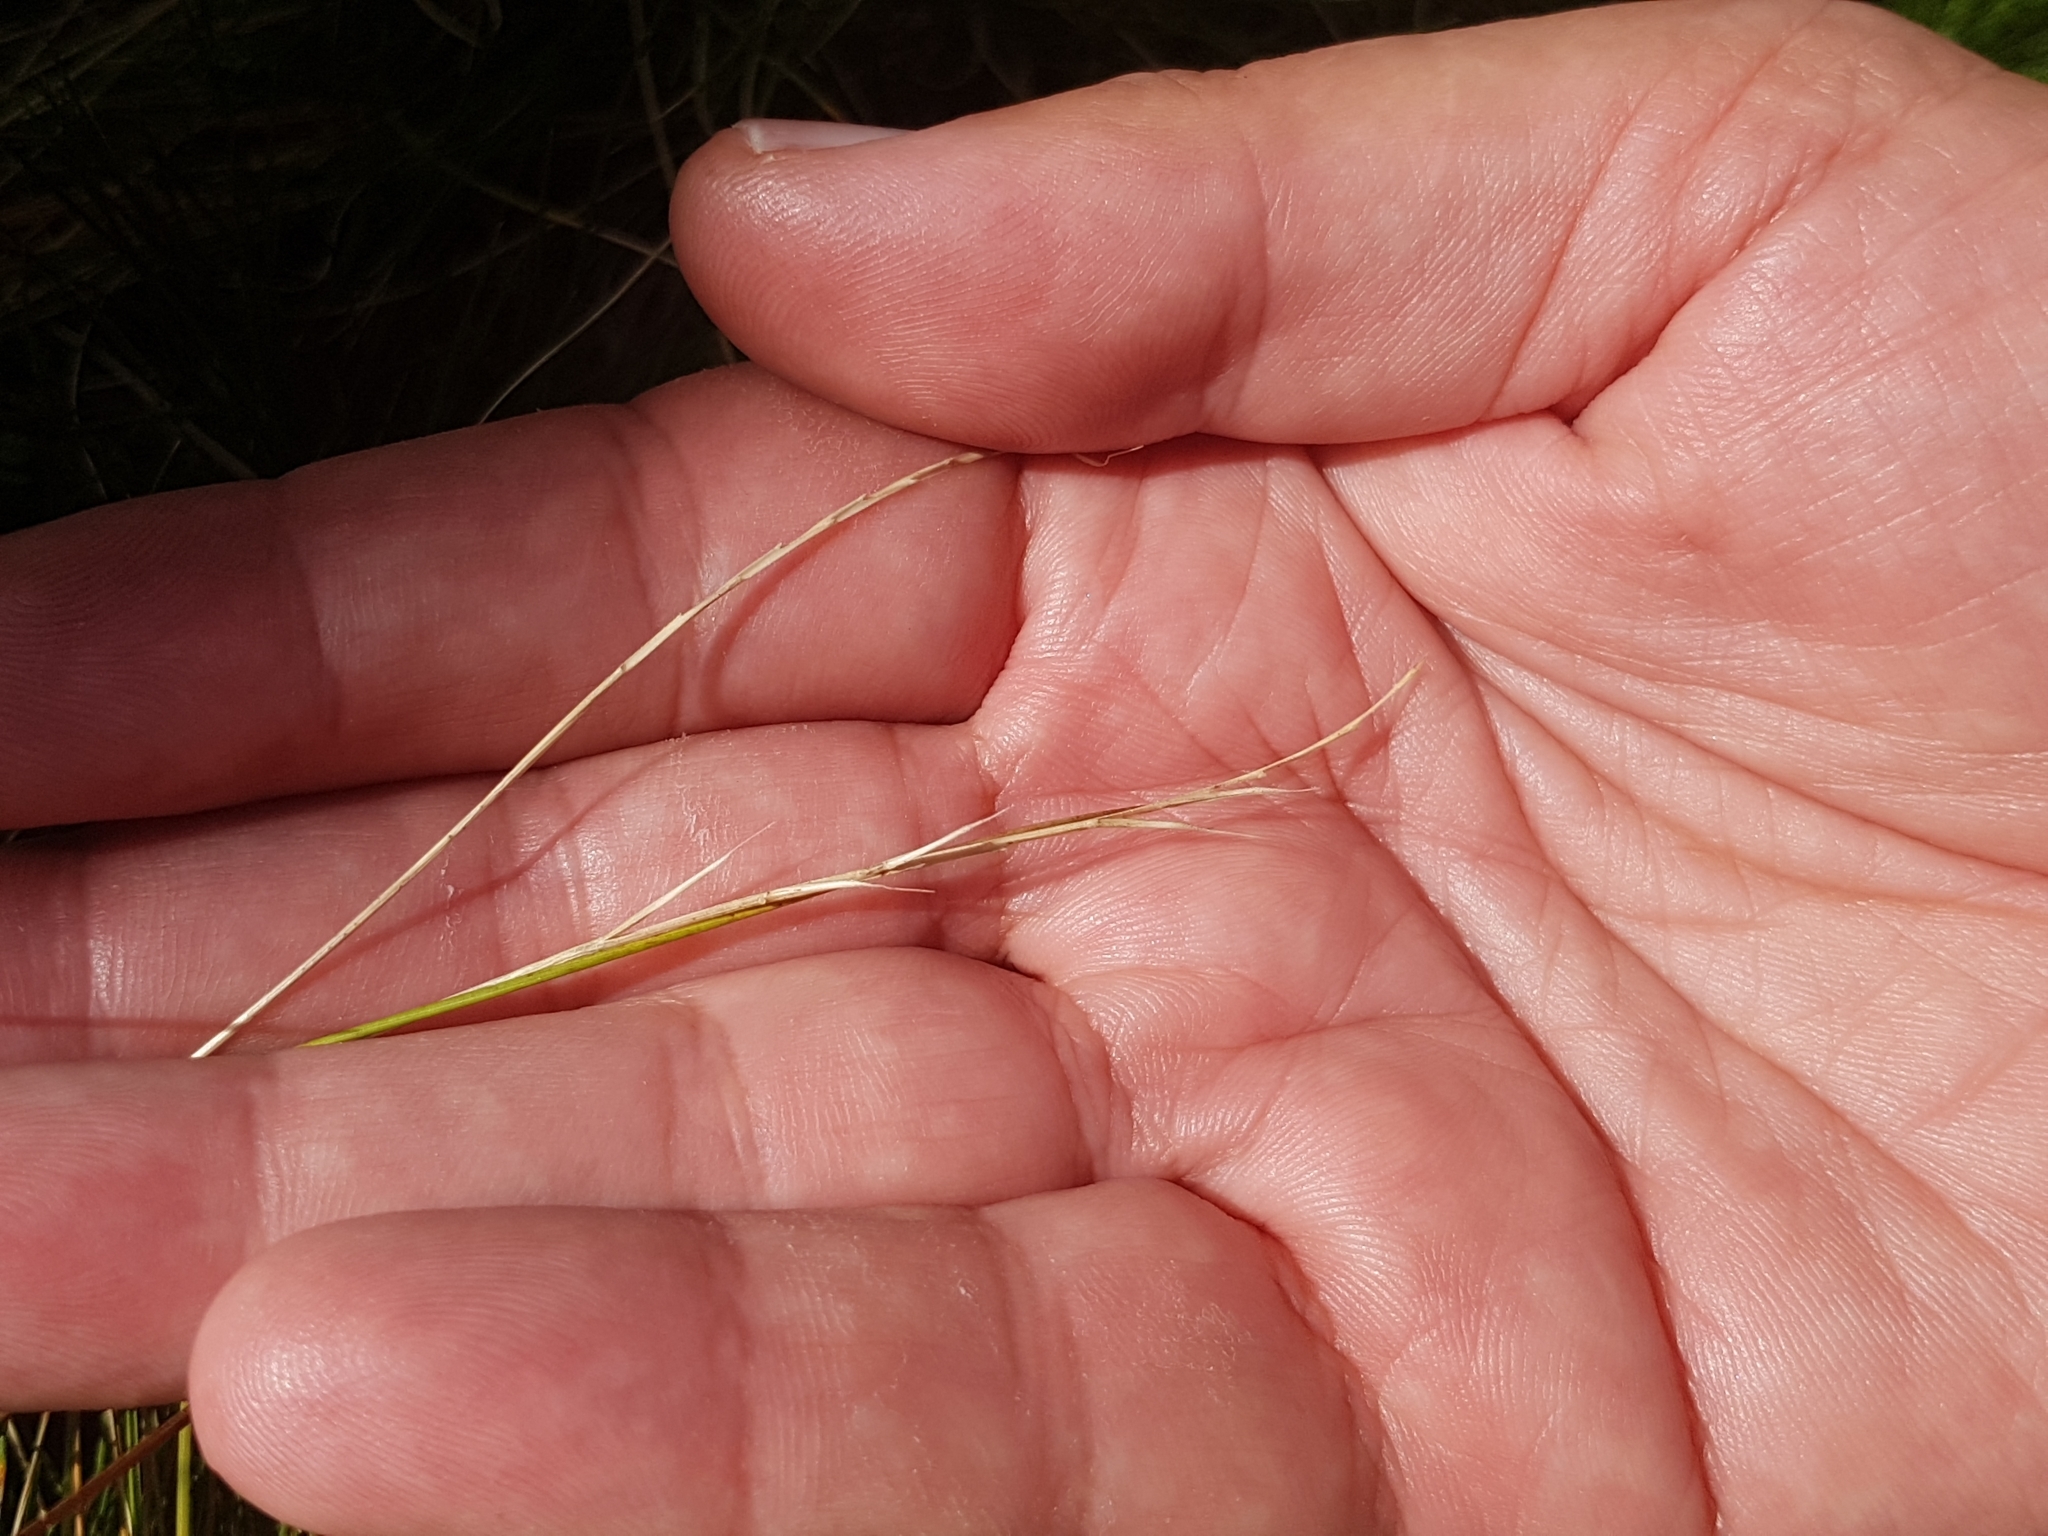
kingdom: Plantae
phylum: Tracheophyta
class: Liliopsida
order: Poales
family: Poaceae
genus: Nardus
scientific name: Nardus stricta
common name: Mat-grass
